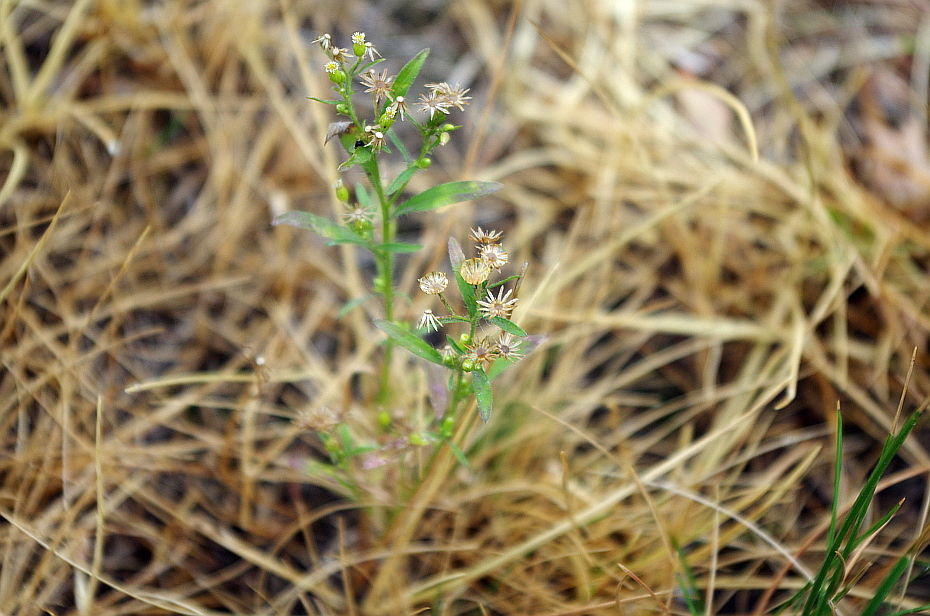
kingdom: Plantae
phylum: Tracheophyta
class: Magnoliopsida
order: Asterales
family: Asteraceae
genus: Erigeron
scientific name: Erigeron canadensis
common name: Canadian fleabane
